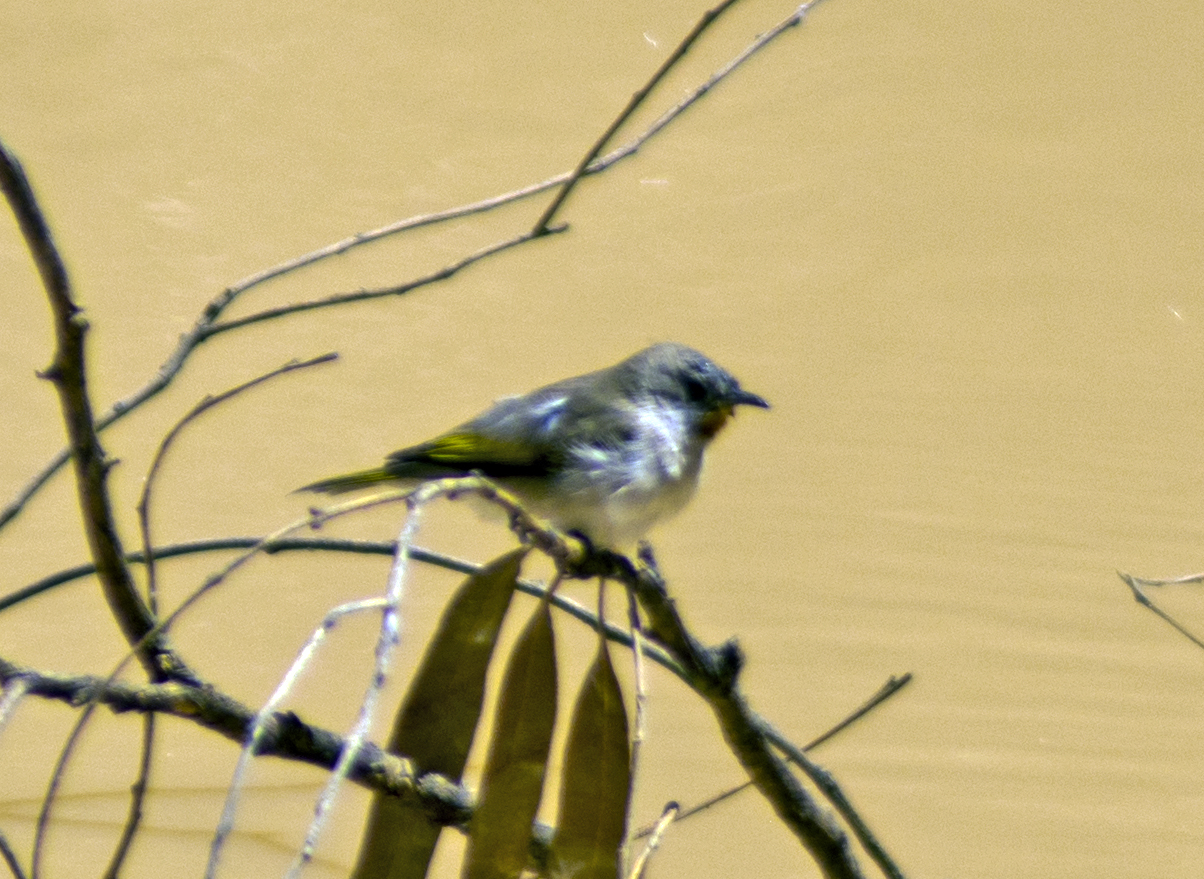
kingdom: Animalia
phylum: Chordata
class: Aves
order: Passeriformes
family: Meliphagidae
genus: Conopophila
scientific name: Conopophila rufogularis
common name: Rufous-throated honeyeater
